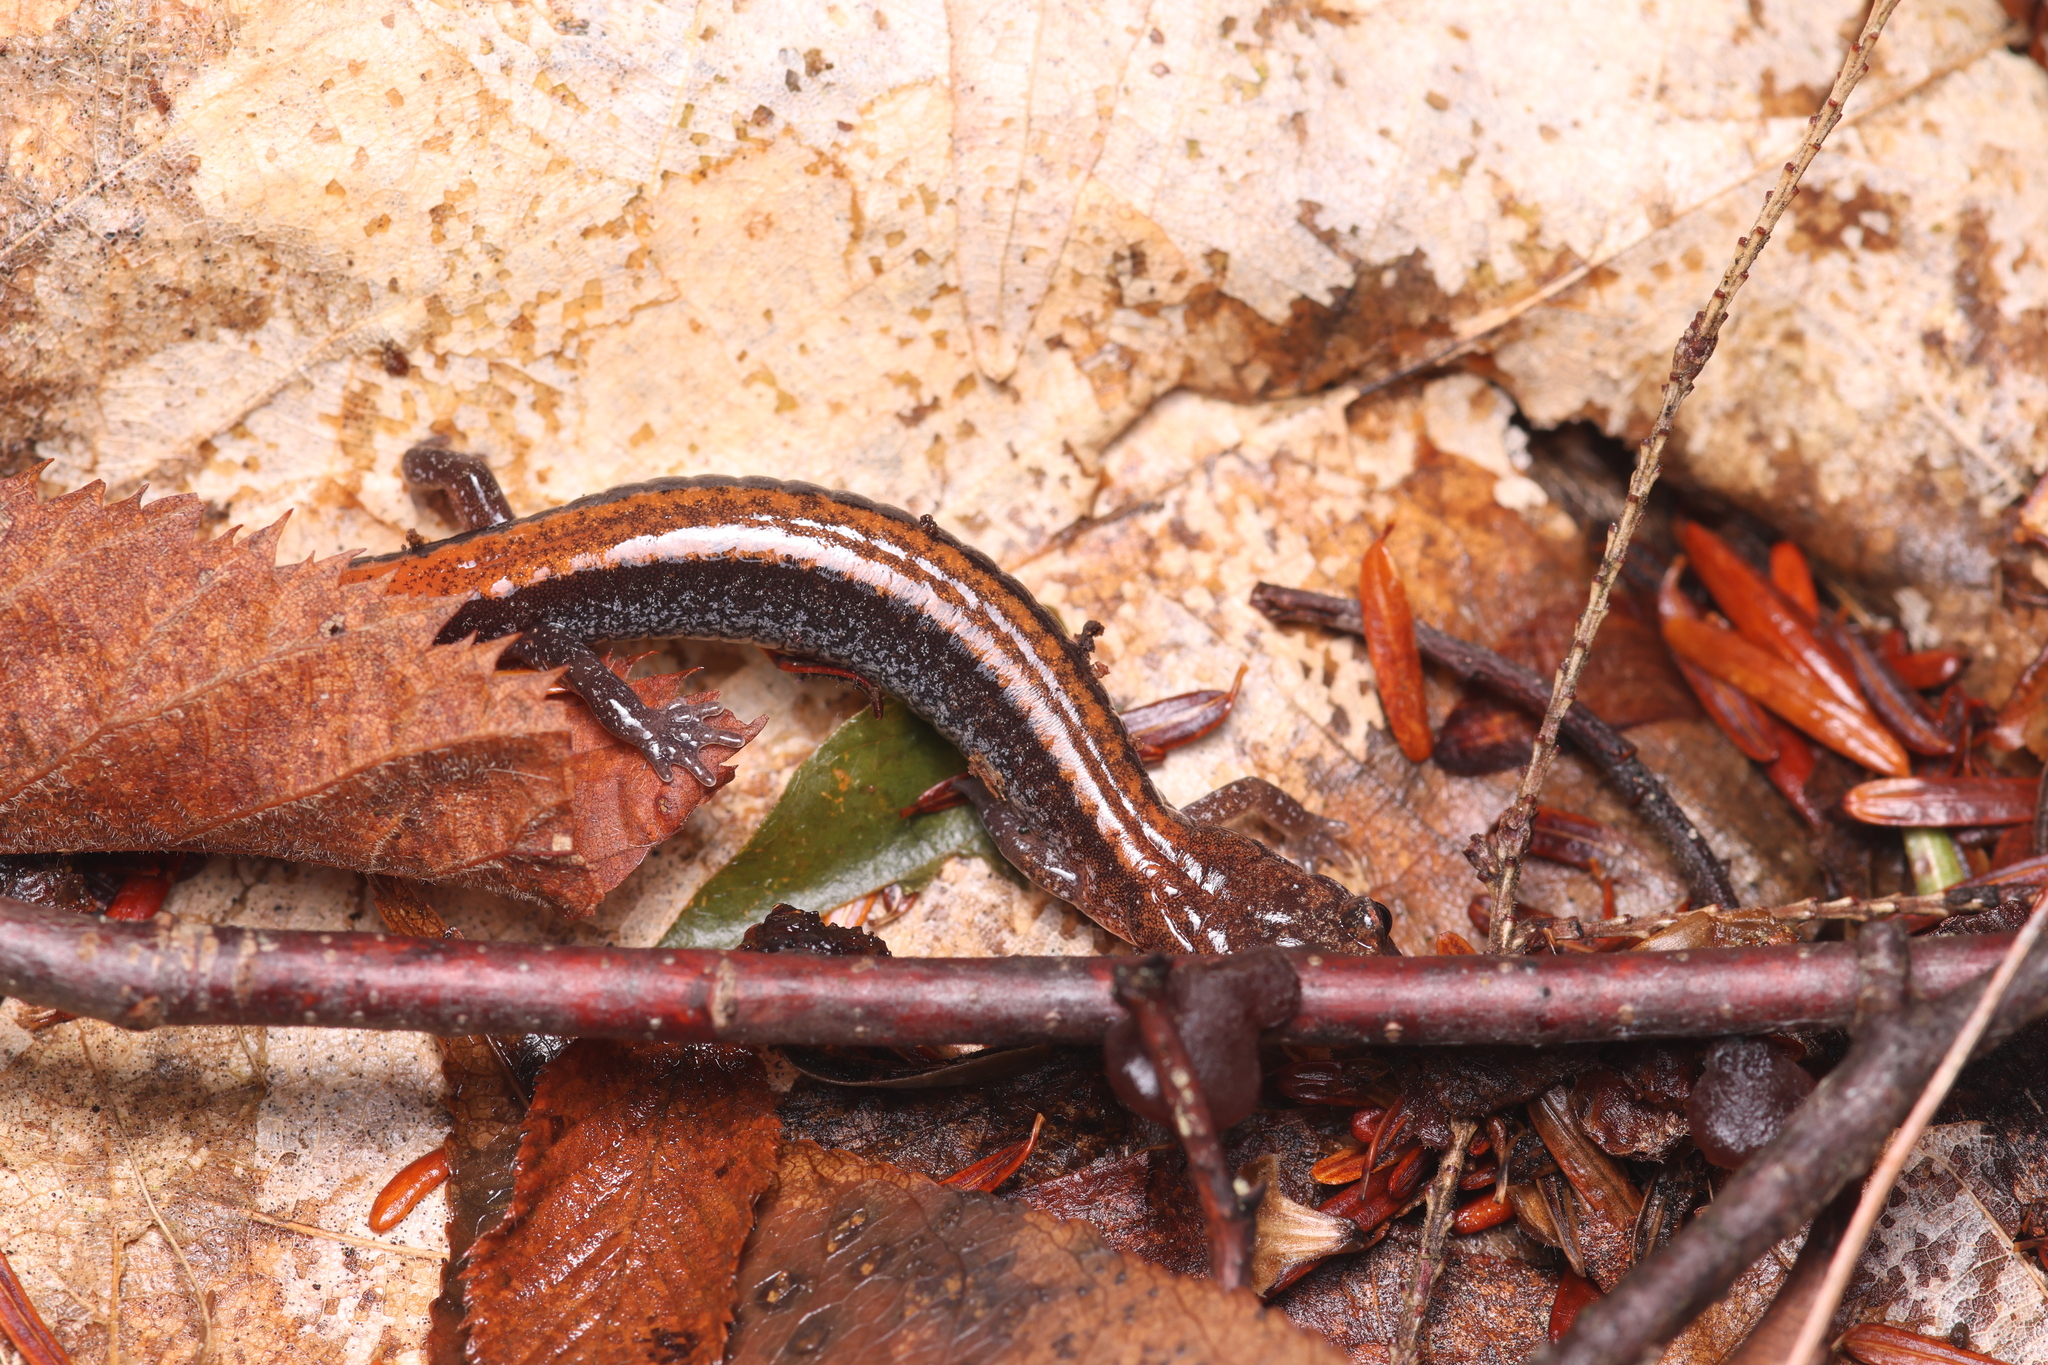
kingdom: Animalia
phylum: Chordata
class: Amphibia
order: Caudata
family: Plethodontidae
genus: Plethodon
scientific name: Plethodon cinereus
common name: Redback salamander
